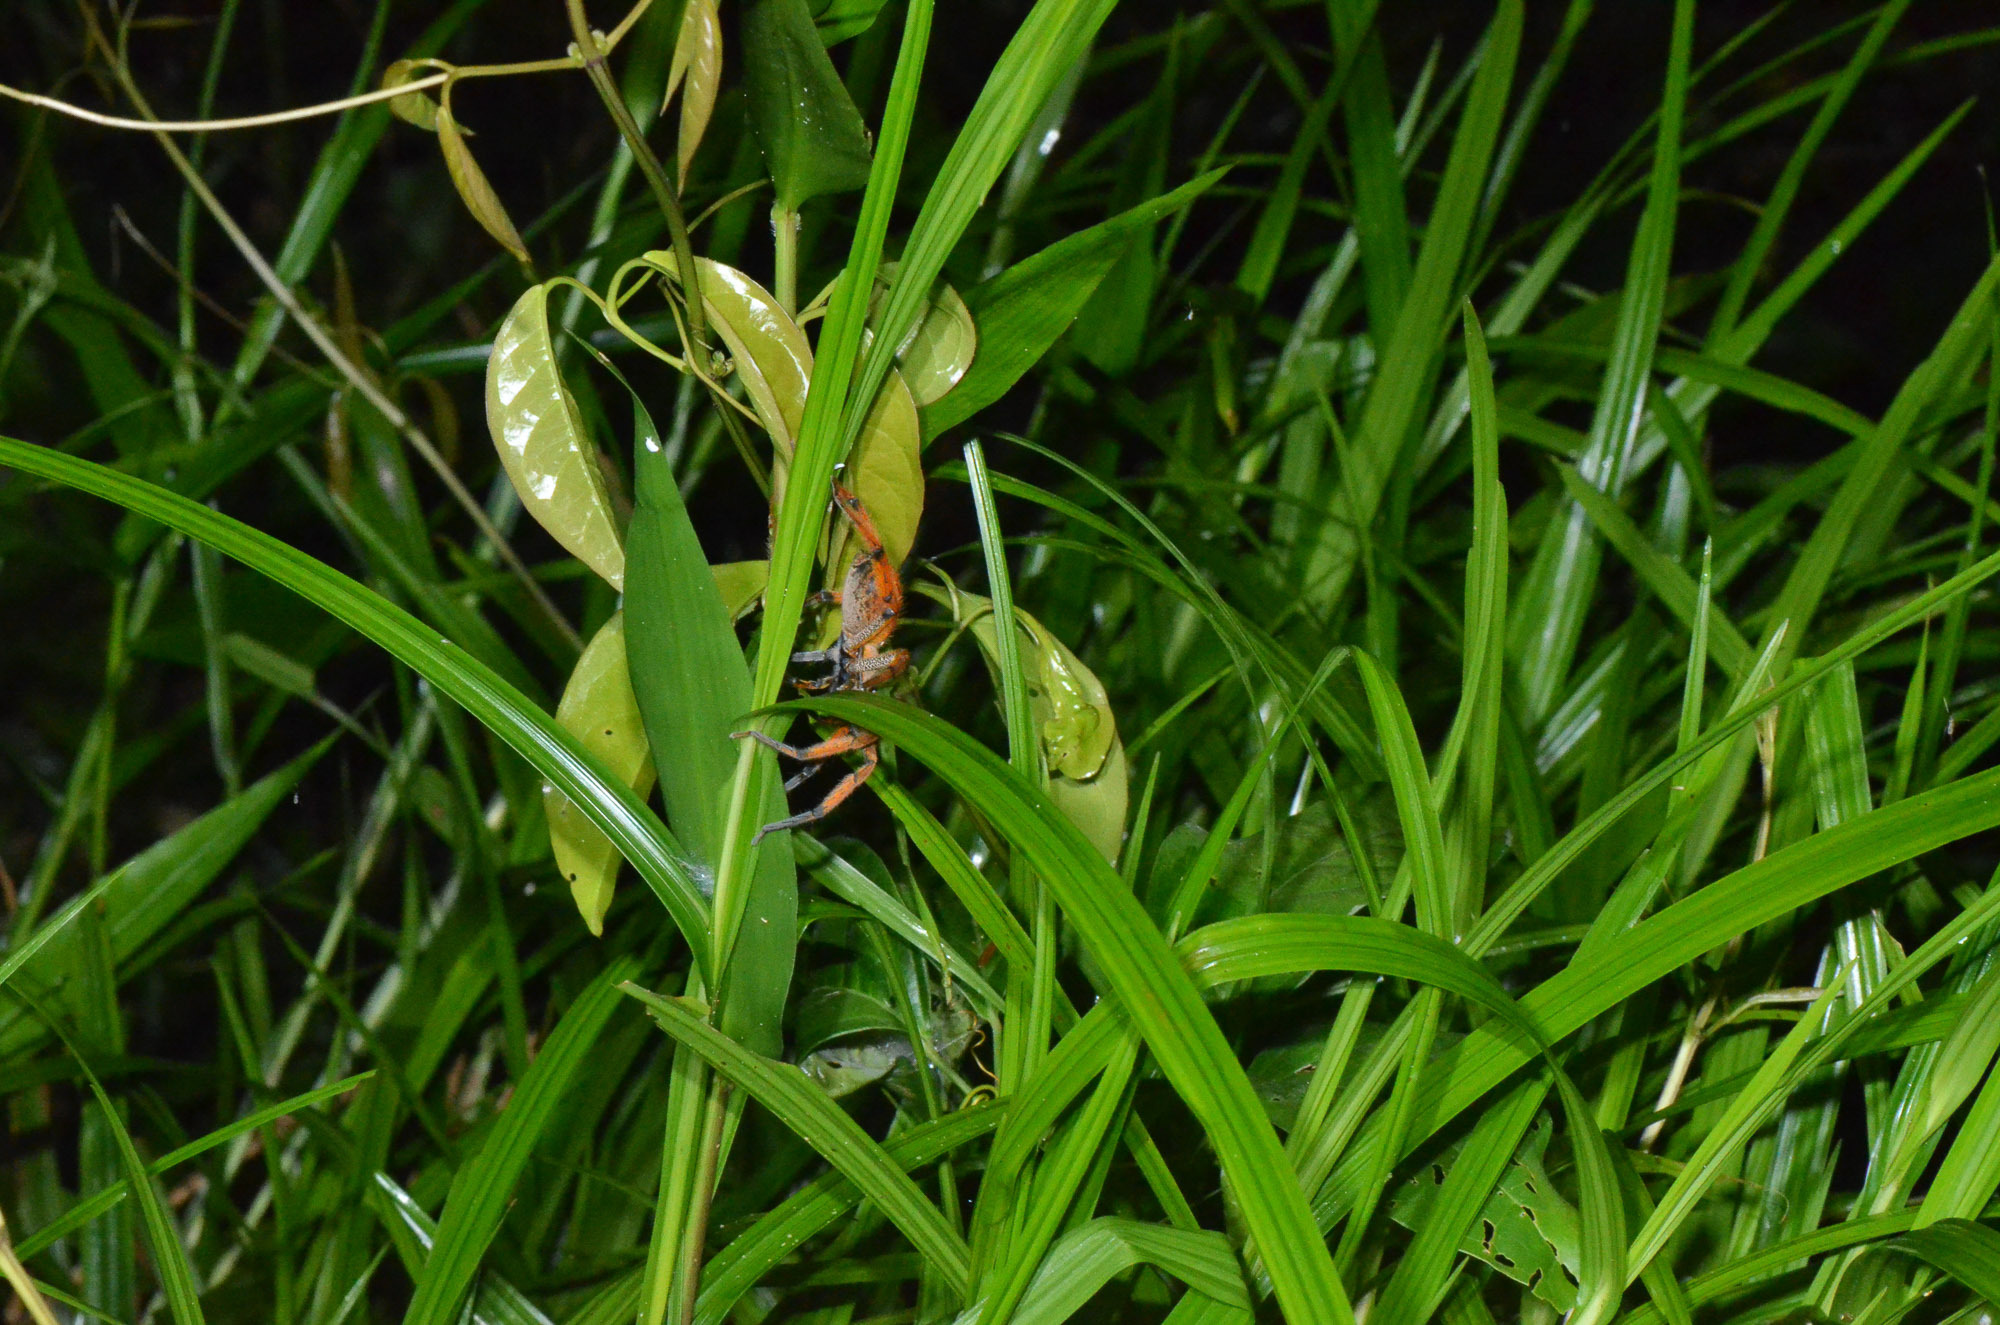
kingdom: Animalia
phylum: Arthropoda
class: Arachnida
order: Araneae
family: Trechaleidae
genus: Cupiennius
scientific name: Cupiennius getazi
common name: Wandering spiders
